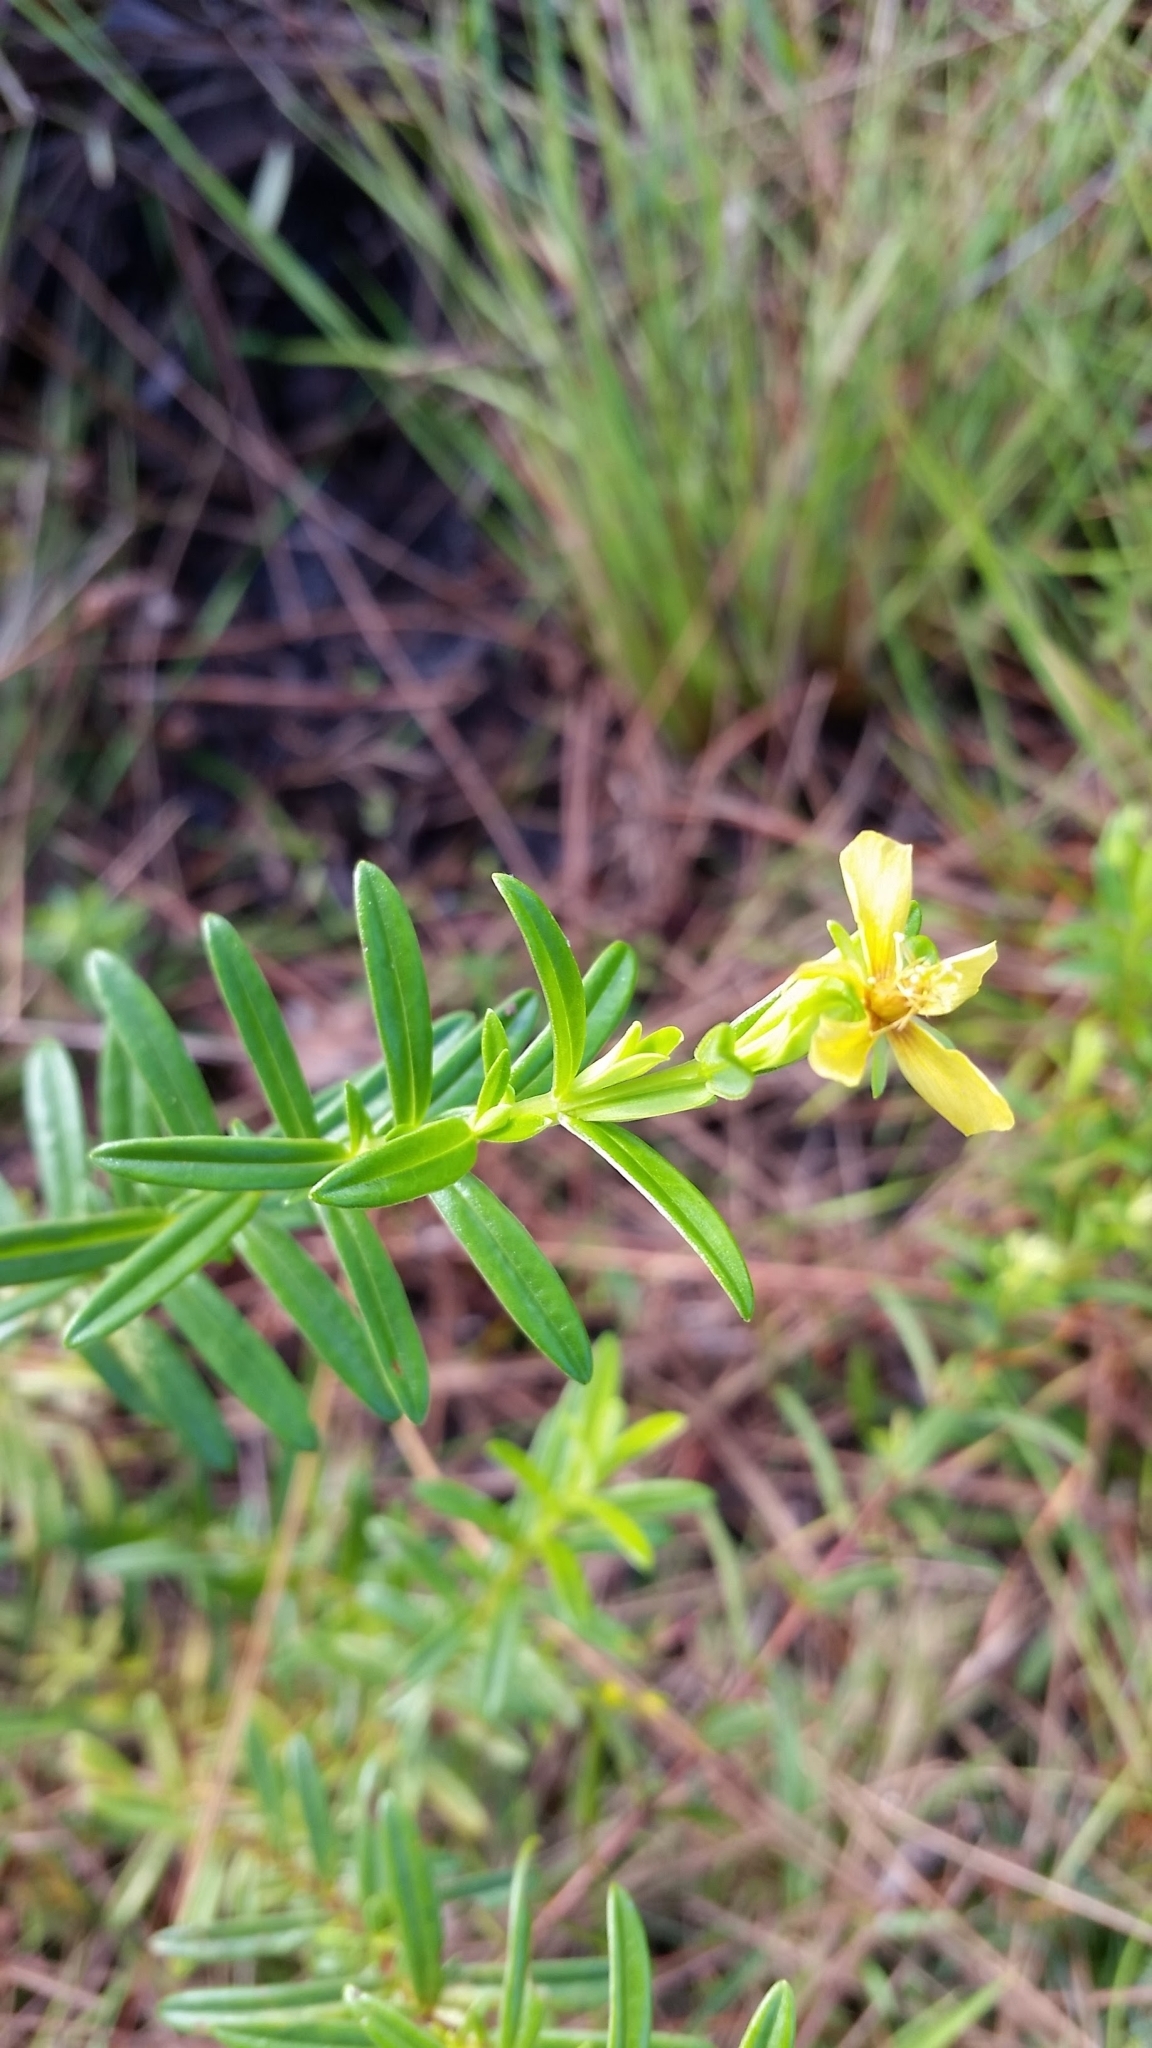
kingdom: Plantae
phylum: Tracheophyta
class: Magnoliopsida
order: Malpighiales
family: Hypericaceae
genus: Hypericum
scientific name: Hypericum cistifolium
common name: Round-pod st. john's-wort
